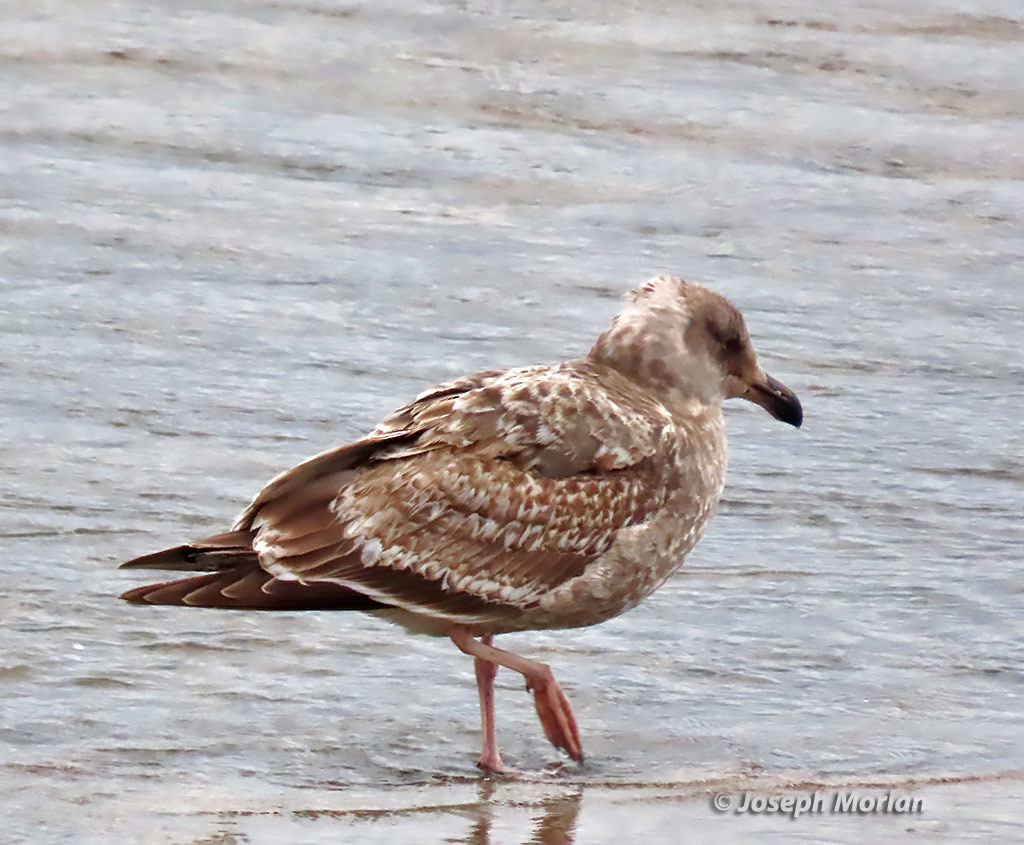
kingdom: Animalia
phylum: Chordata
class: Aves
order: Charadriiformes
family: Laridae
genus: Larus
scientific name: Larus occidentalis
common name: Western gull
